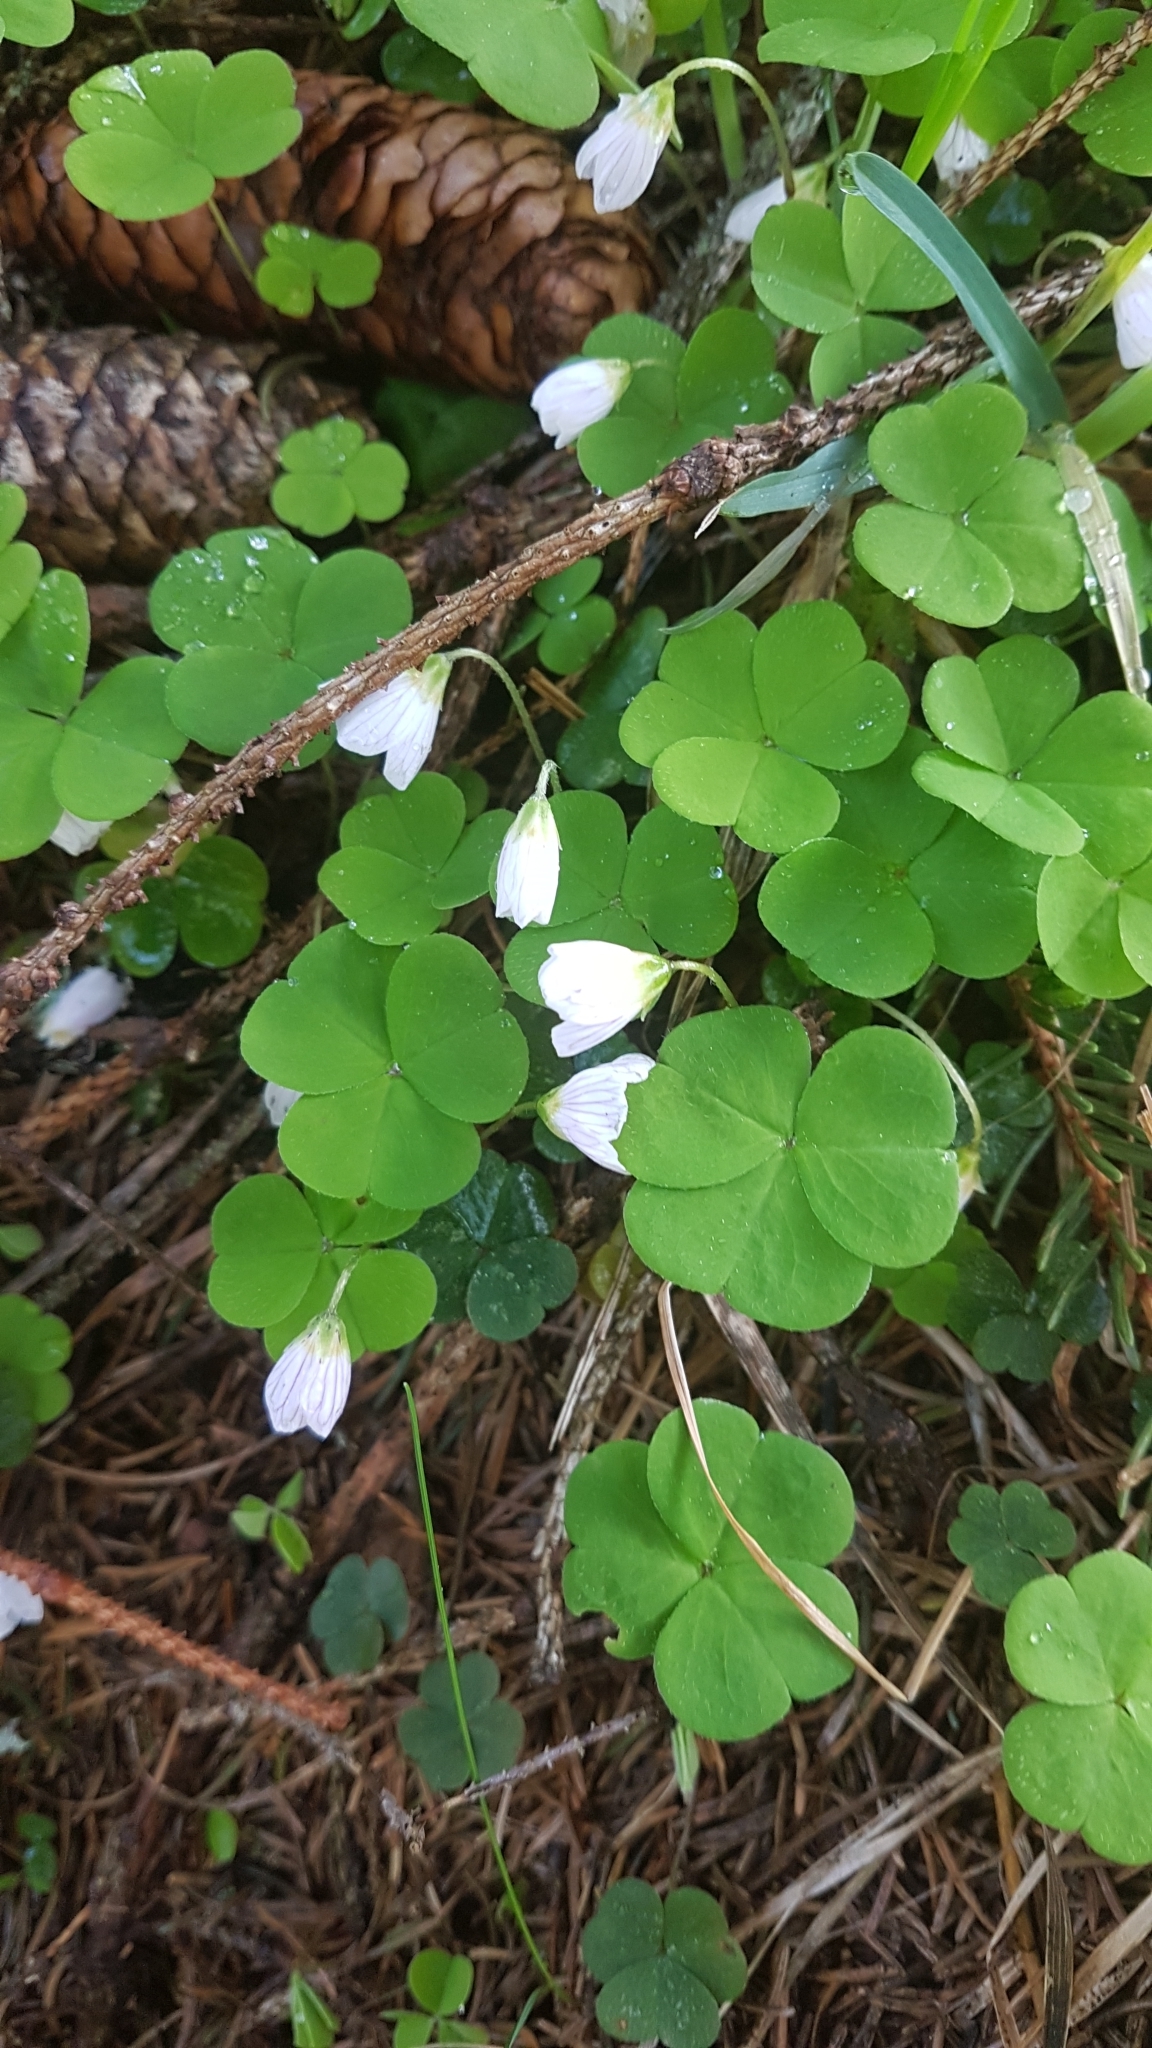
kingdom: Plantae
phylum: Tracheophyta
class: Magnoliopsida
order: Oxalidales
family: Oxalidaceae
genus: Oxalis
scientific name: Oxalis acetosella
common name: Wood-sorrel
